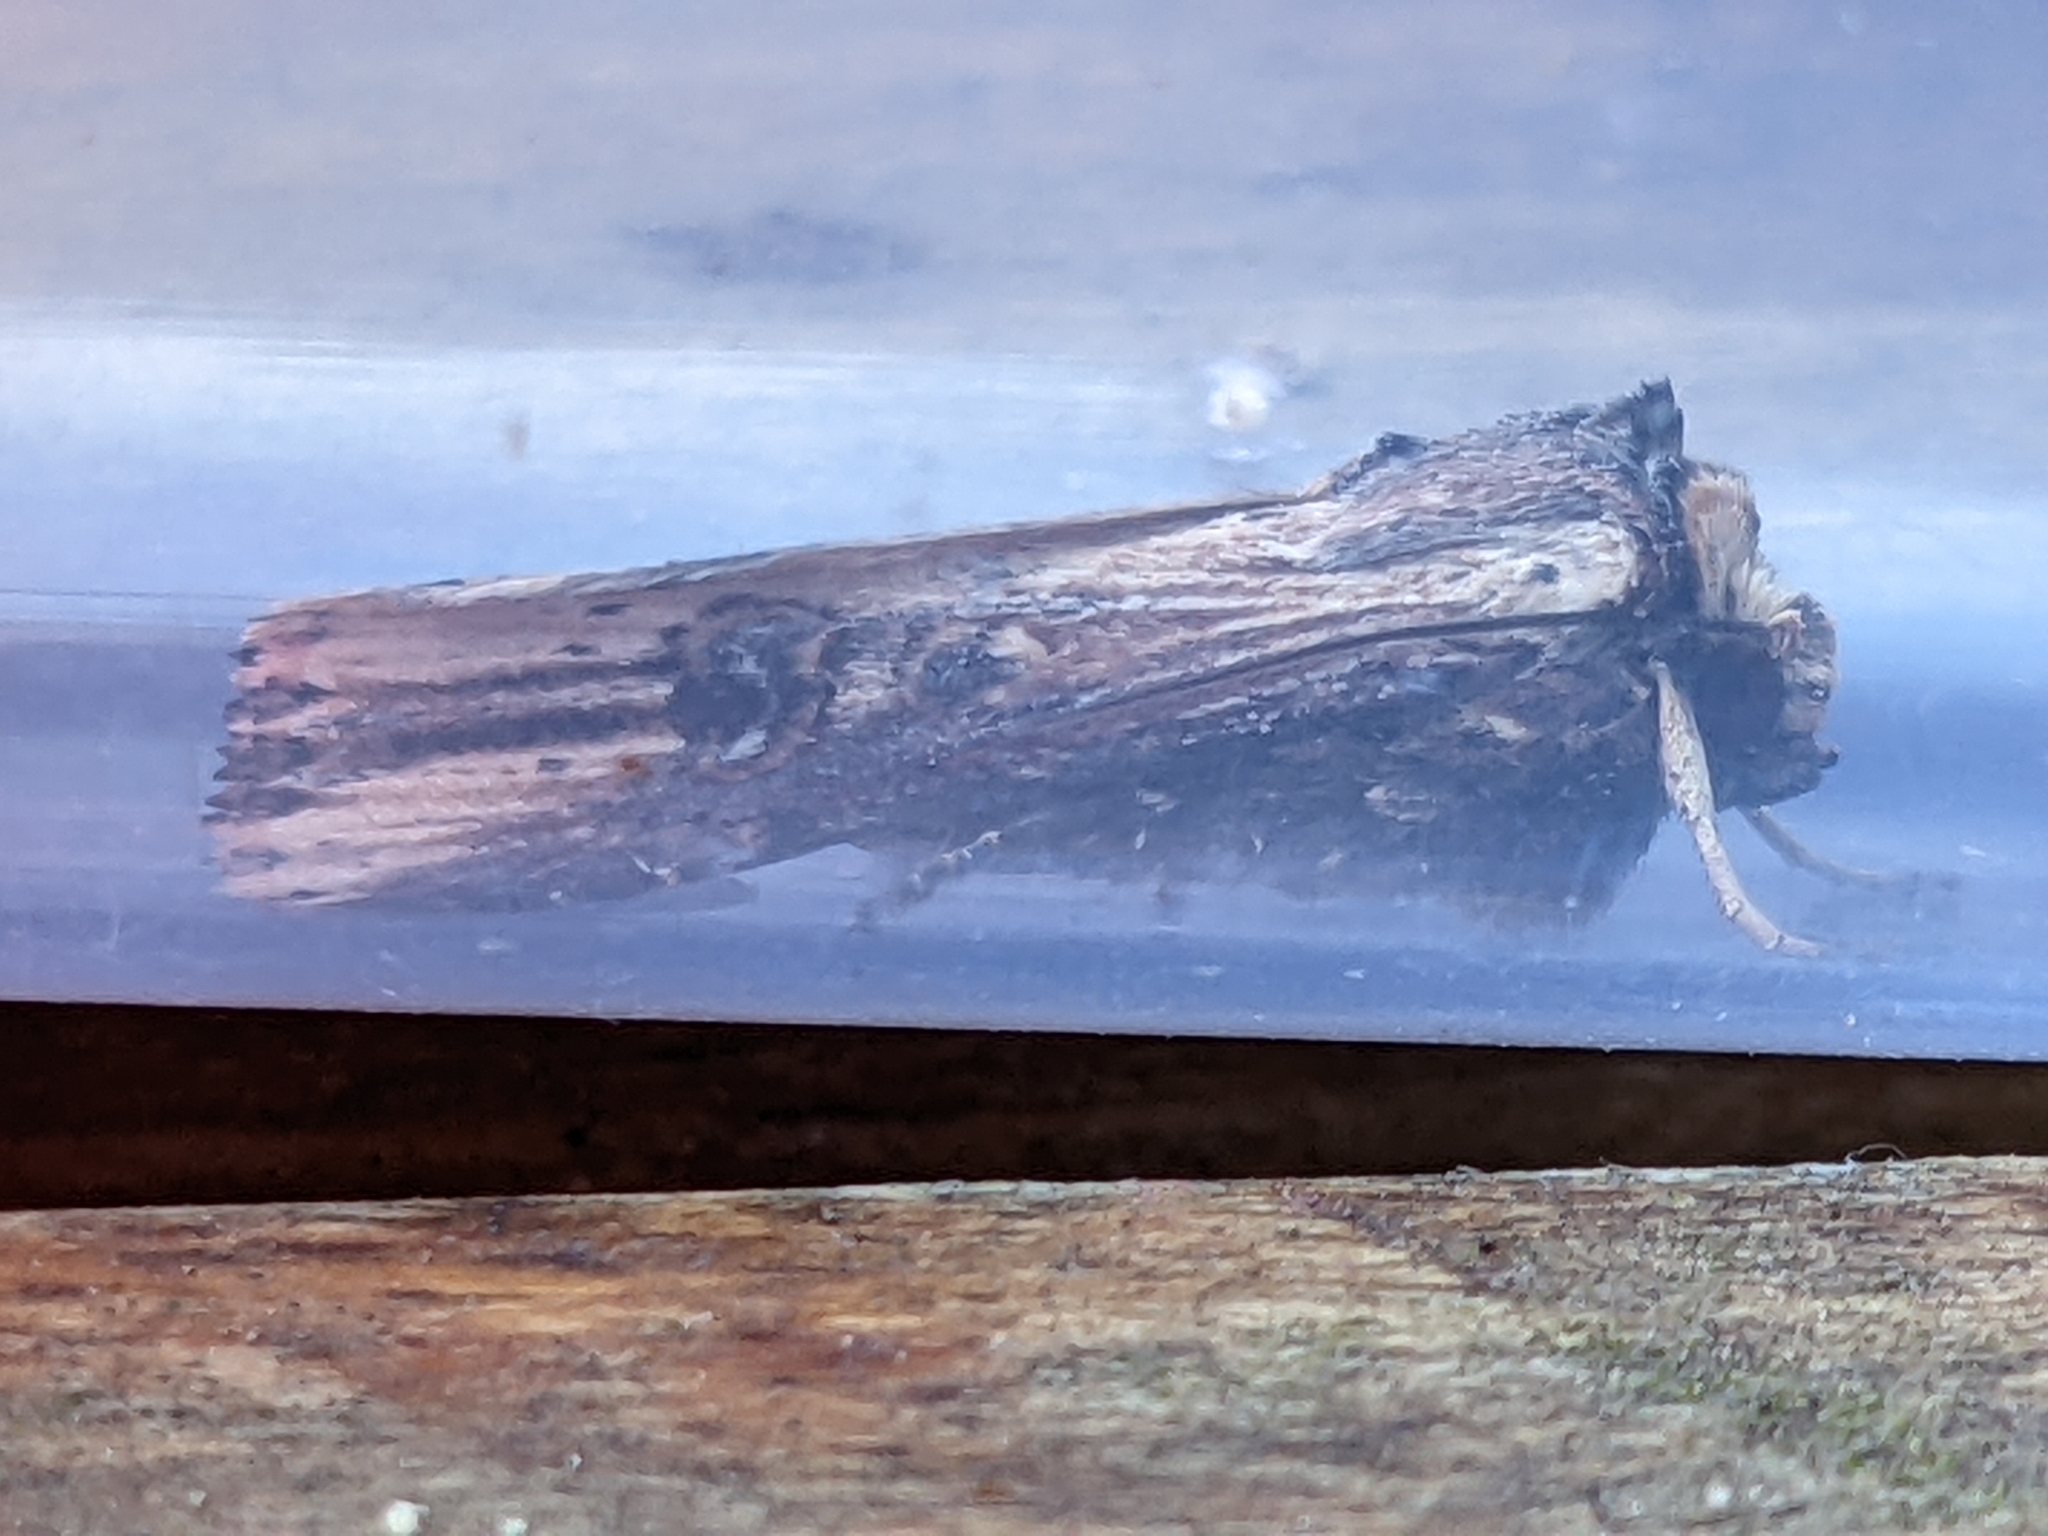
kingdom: Animalia
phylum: Arthropoda
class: Insecta
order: Lepidoptera
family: Noctuidae
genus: Axylia
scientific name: Axylia putris
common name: Flame
